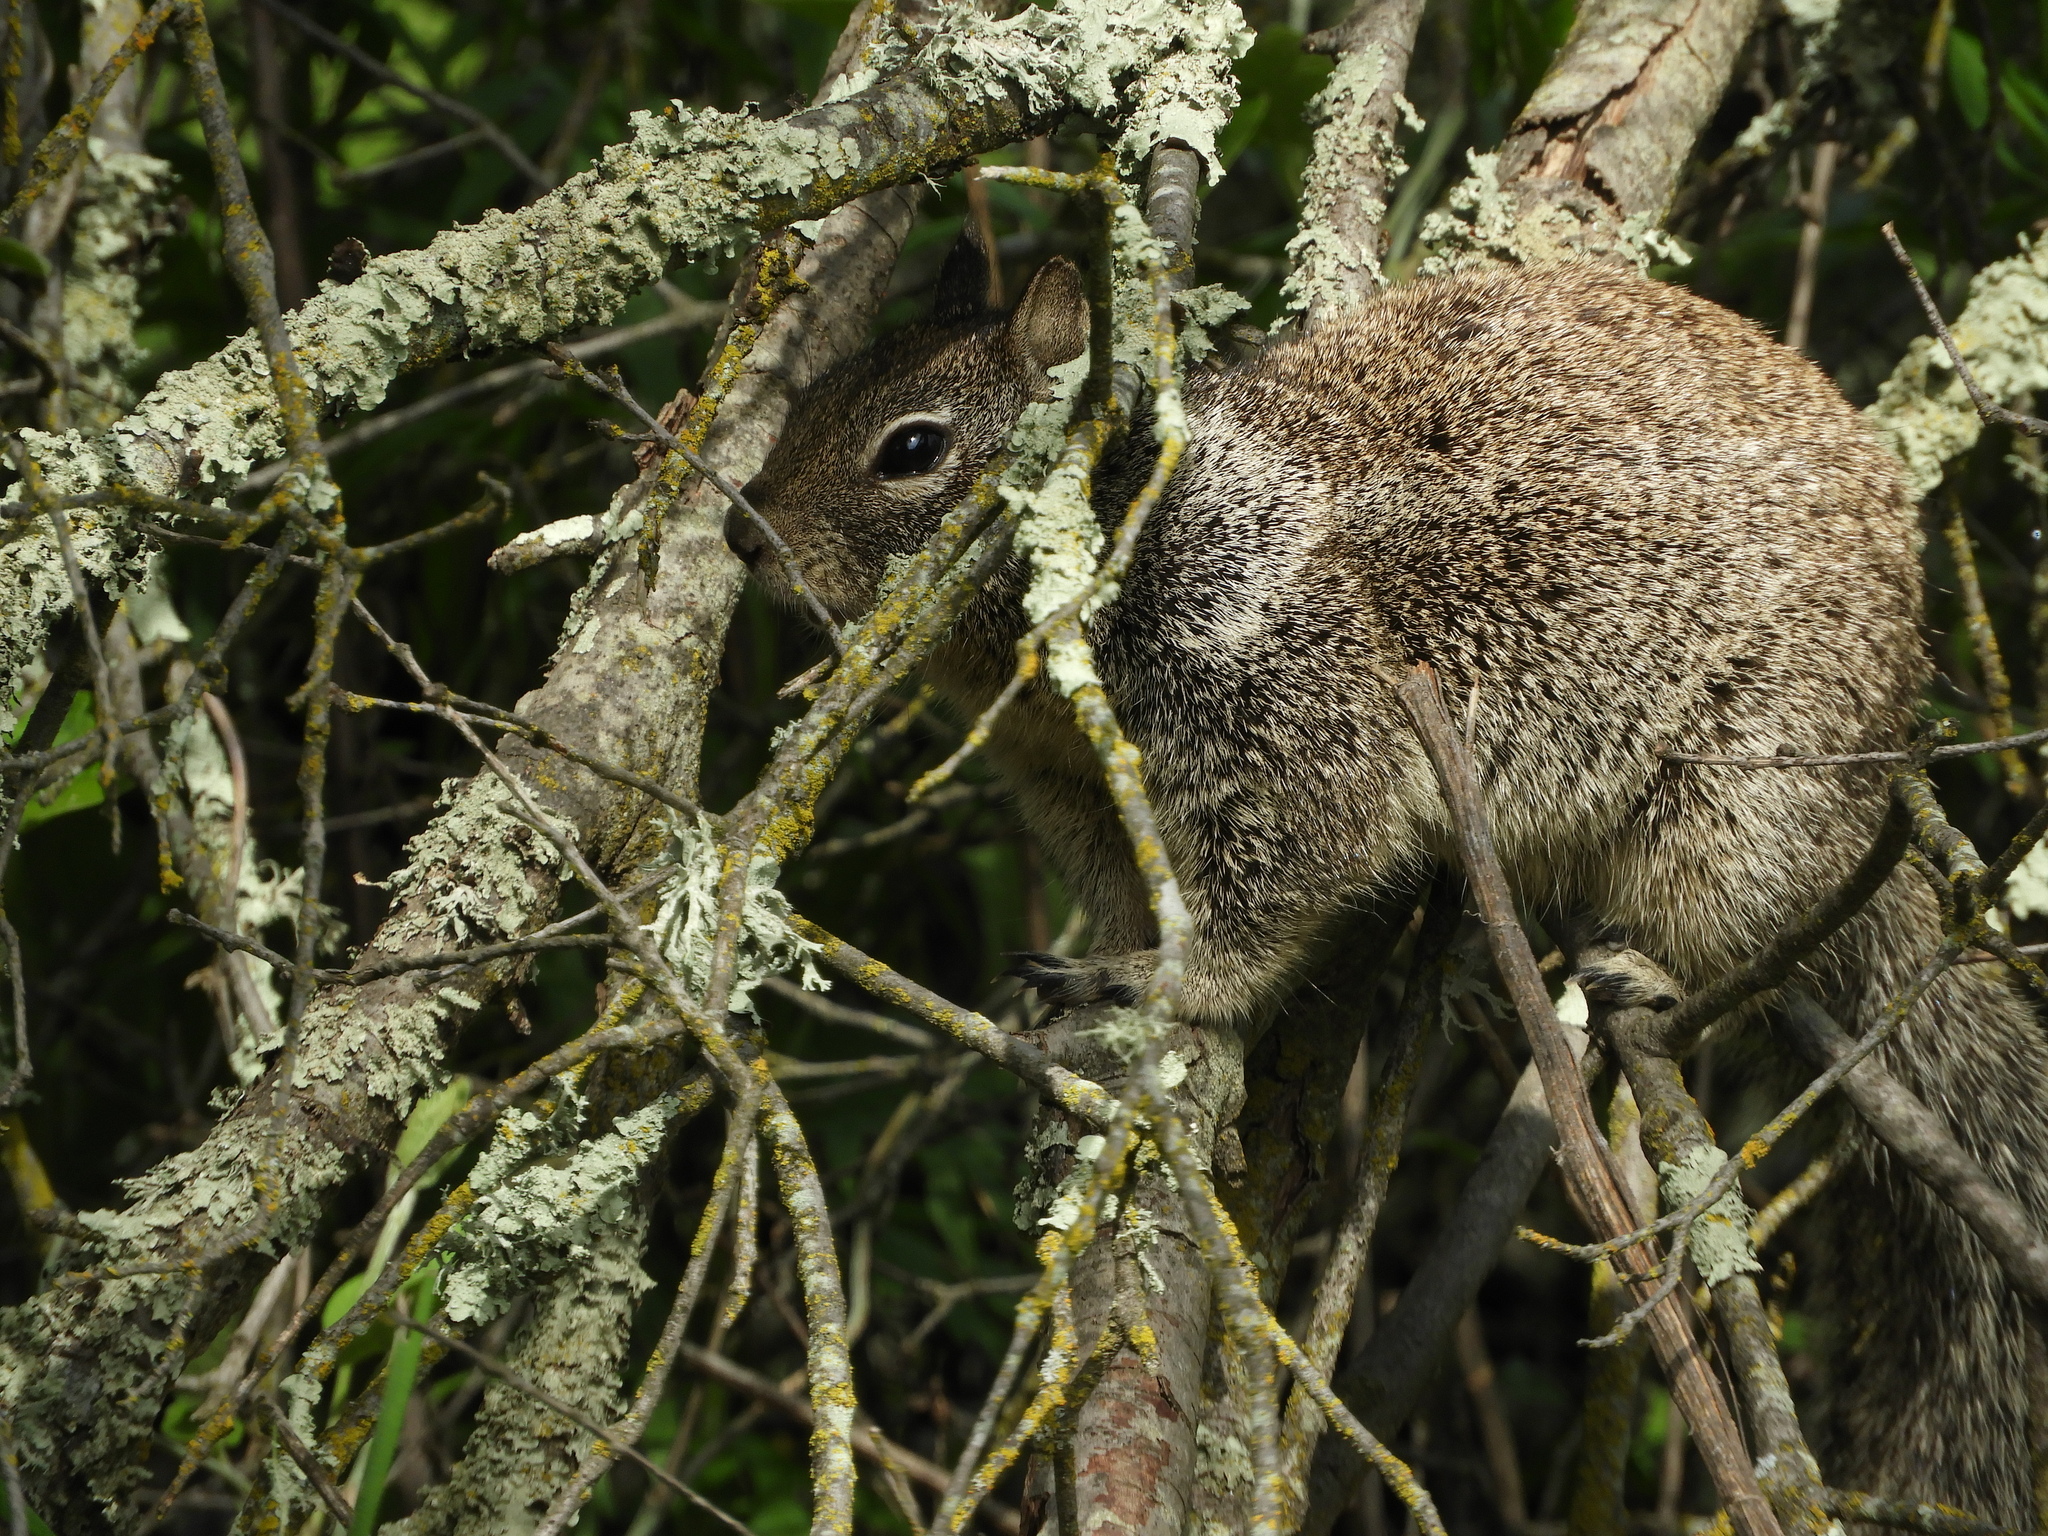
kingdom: Animalia
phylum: Chordata
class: Mammalia
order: Rodentia
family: Sciuridae
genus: Otospermophilus
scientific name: Otospermophilus beecheyi
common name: California ground squirrel
